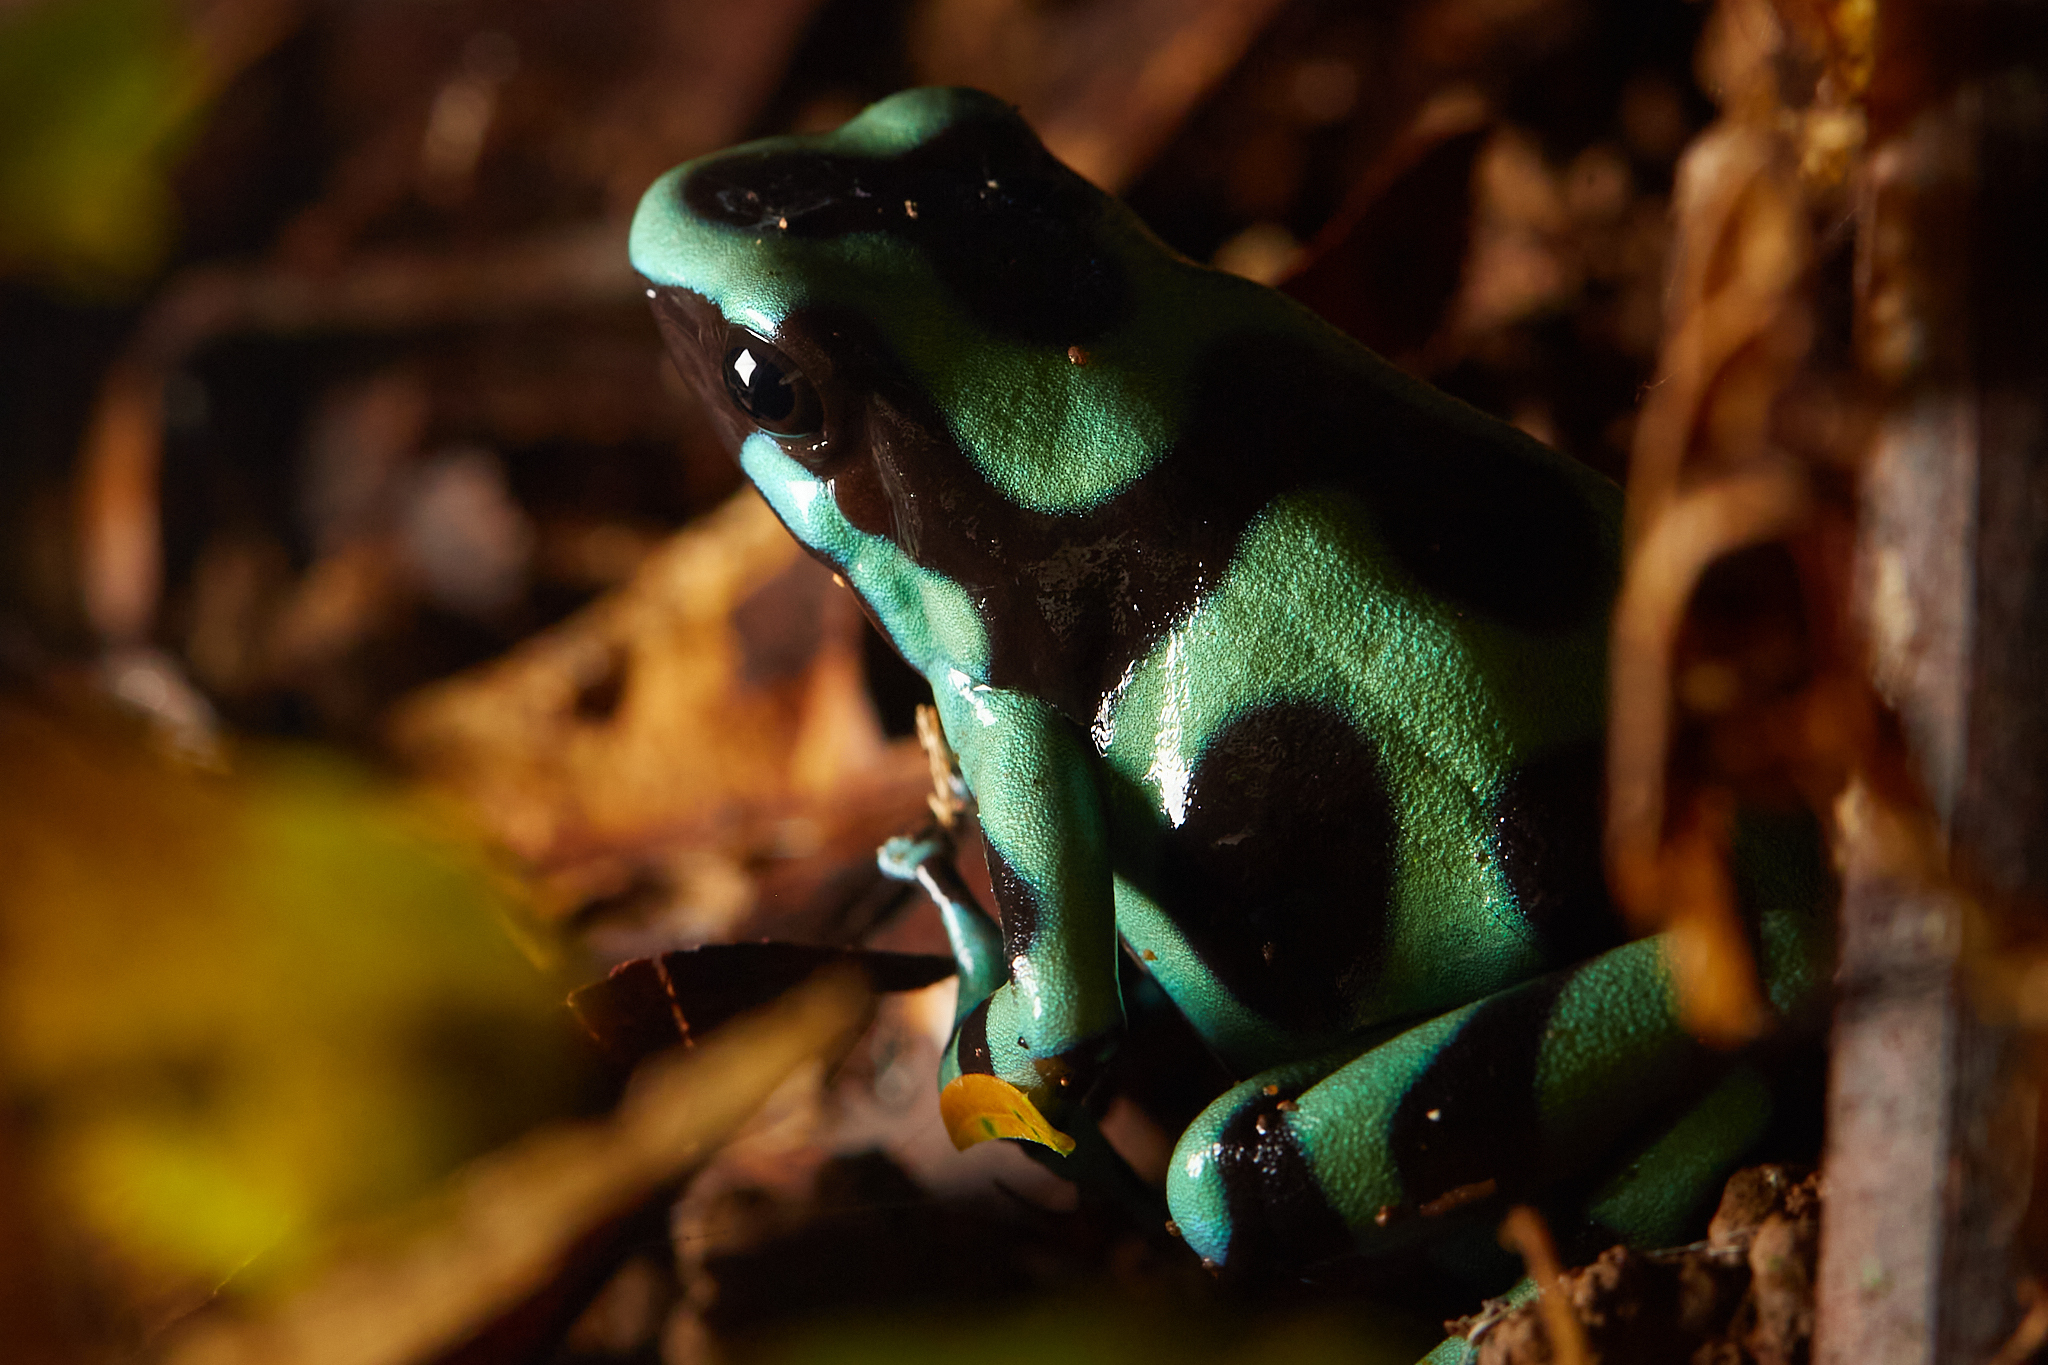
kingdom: Animalia
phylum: Chordata
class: Amphibia
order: Anura
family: Dendrobatidae
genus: Dendrobates
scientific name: Dendrobates auratus
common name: Green and black poison dart frog
